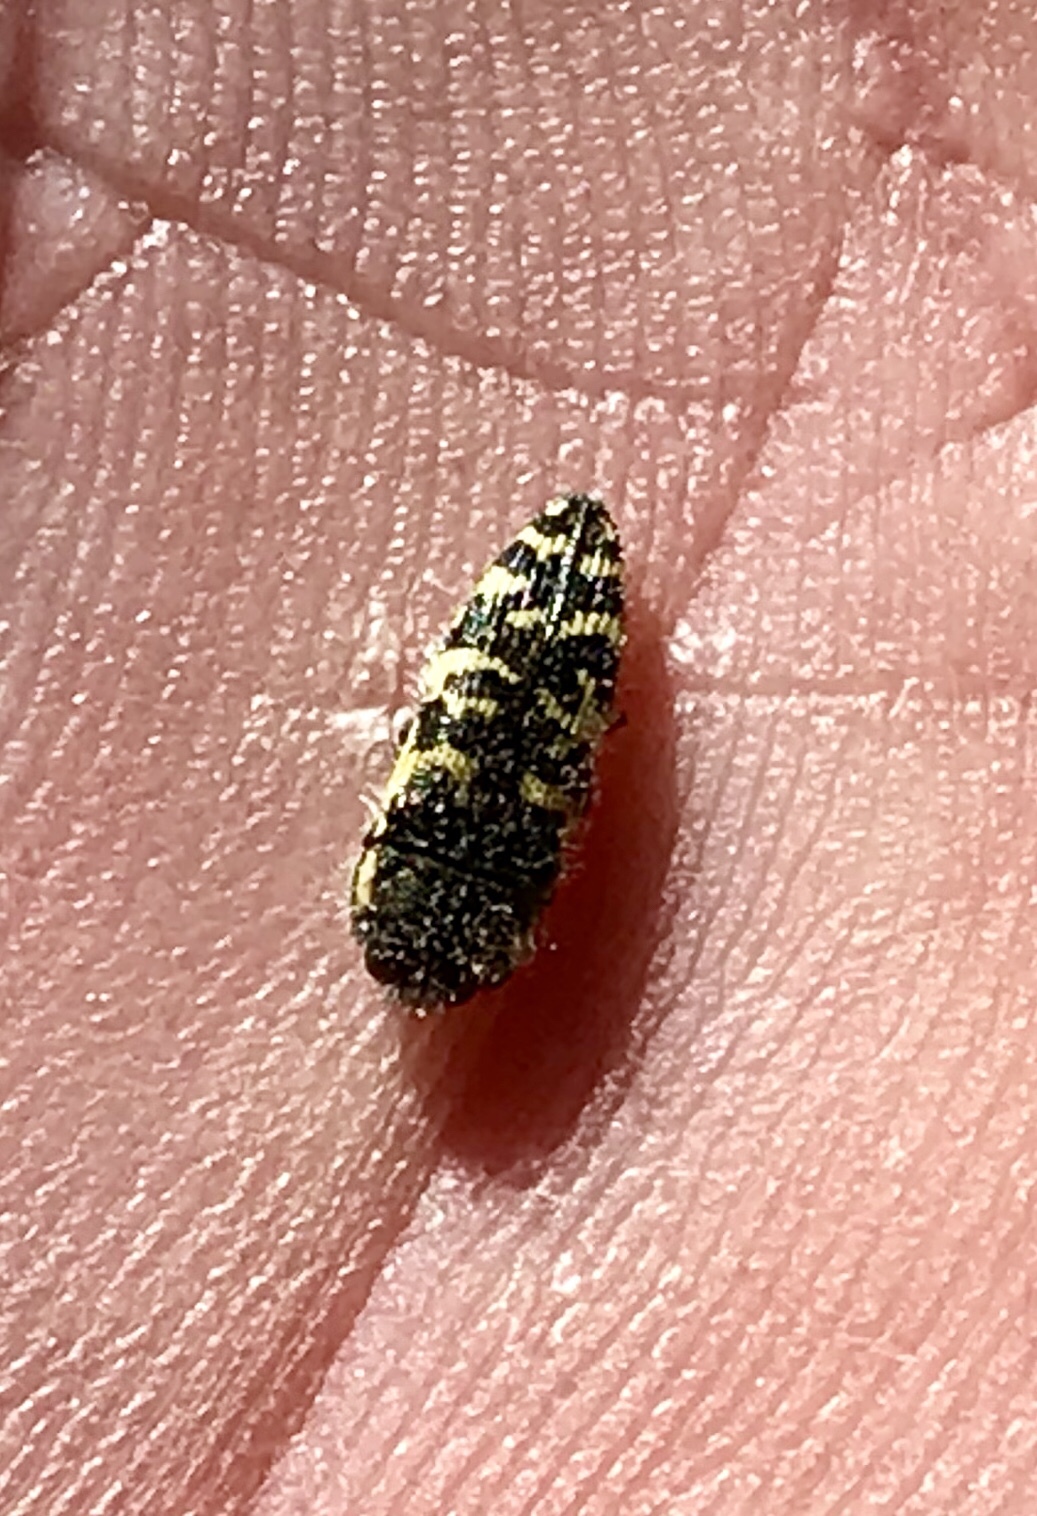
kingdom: Animalia
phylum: Arthropoda
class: Insecta
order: Coleoptera
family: Buprestidae
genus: Acmaeodera
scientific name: Acmaeodera decipiens
